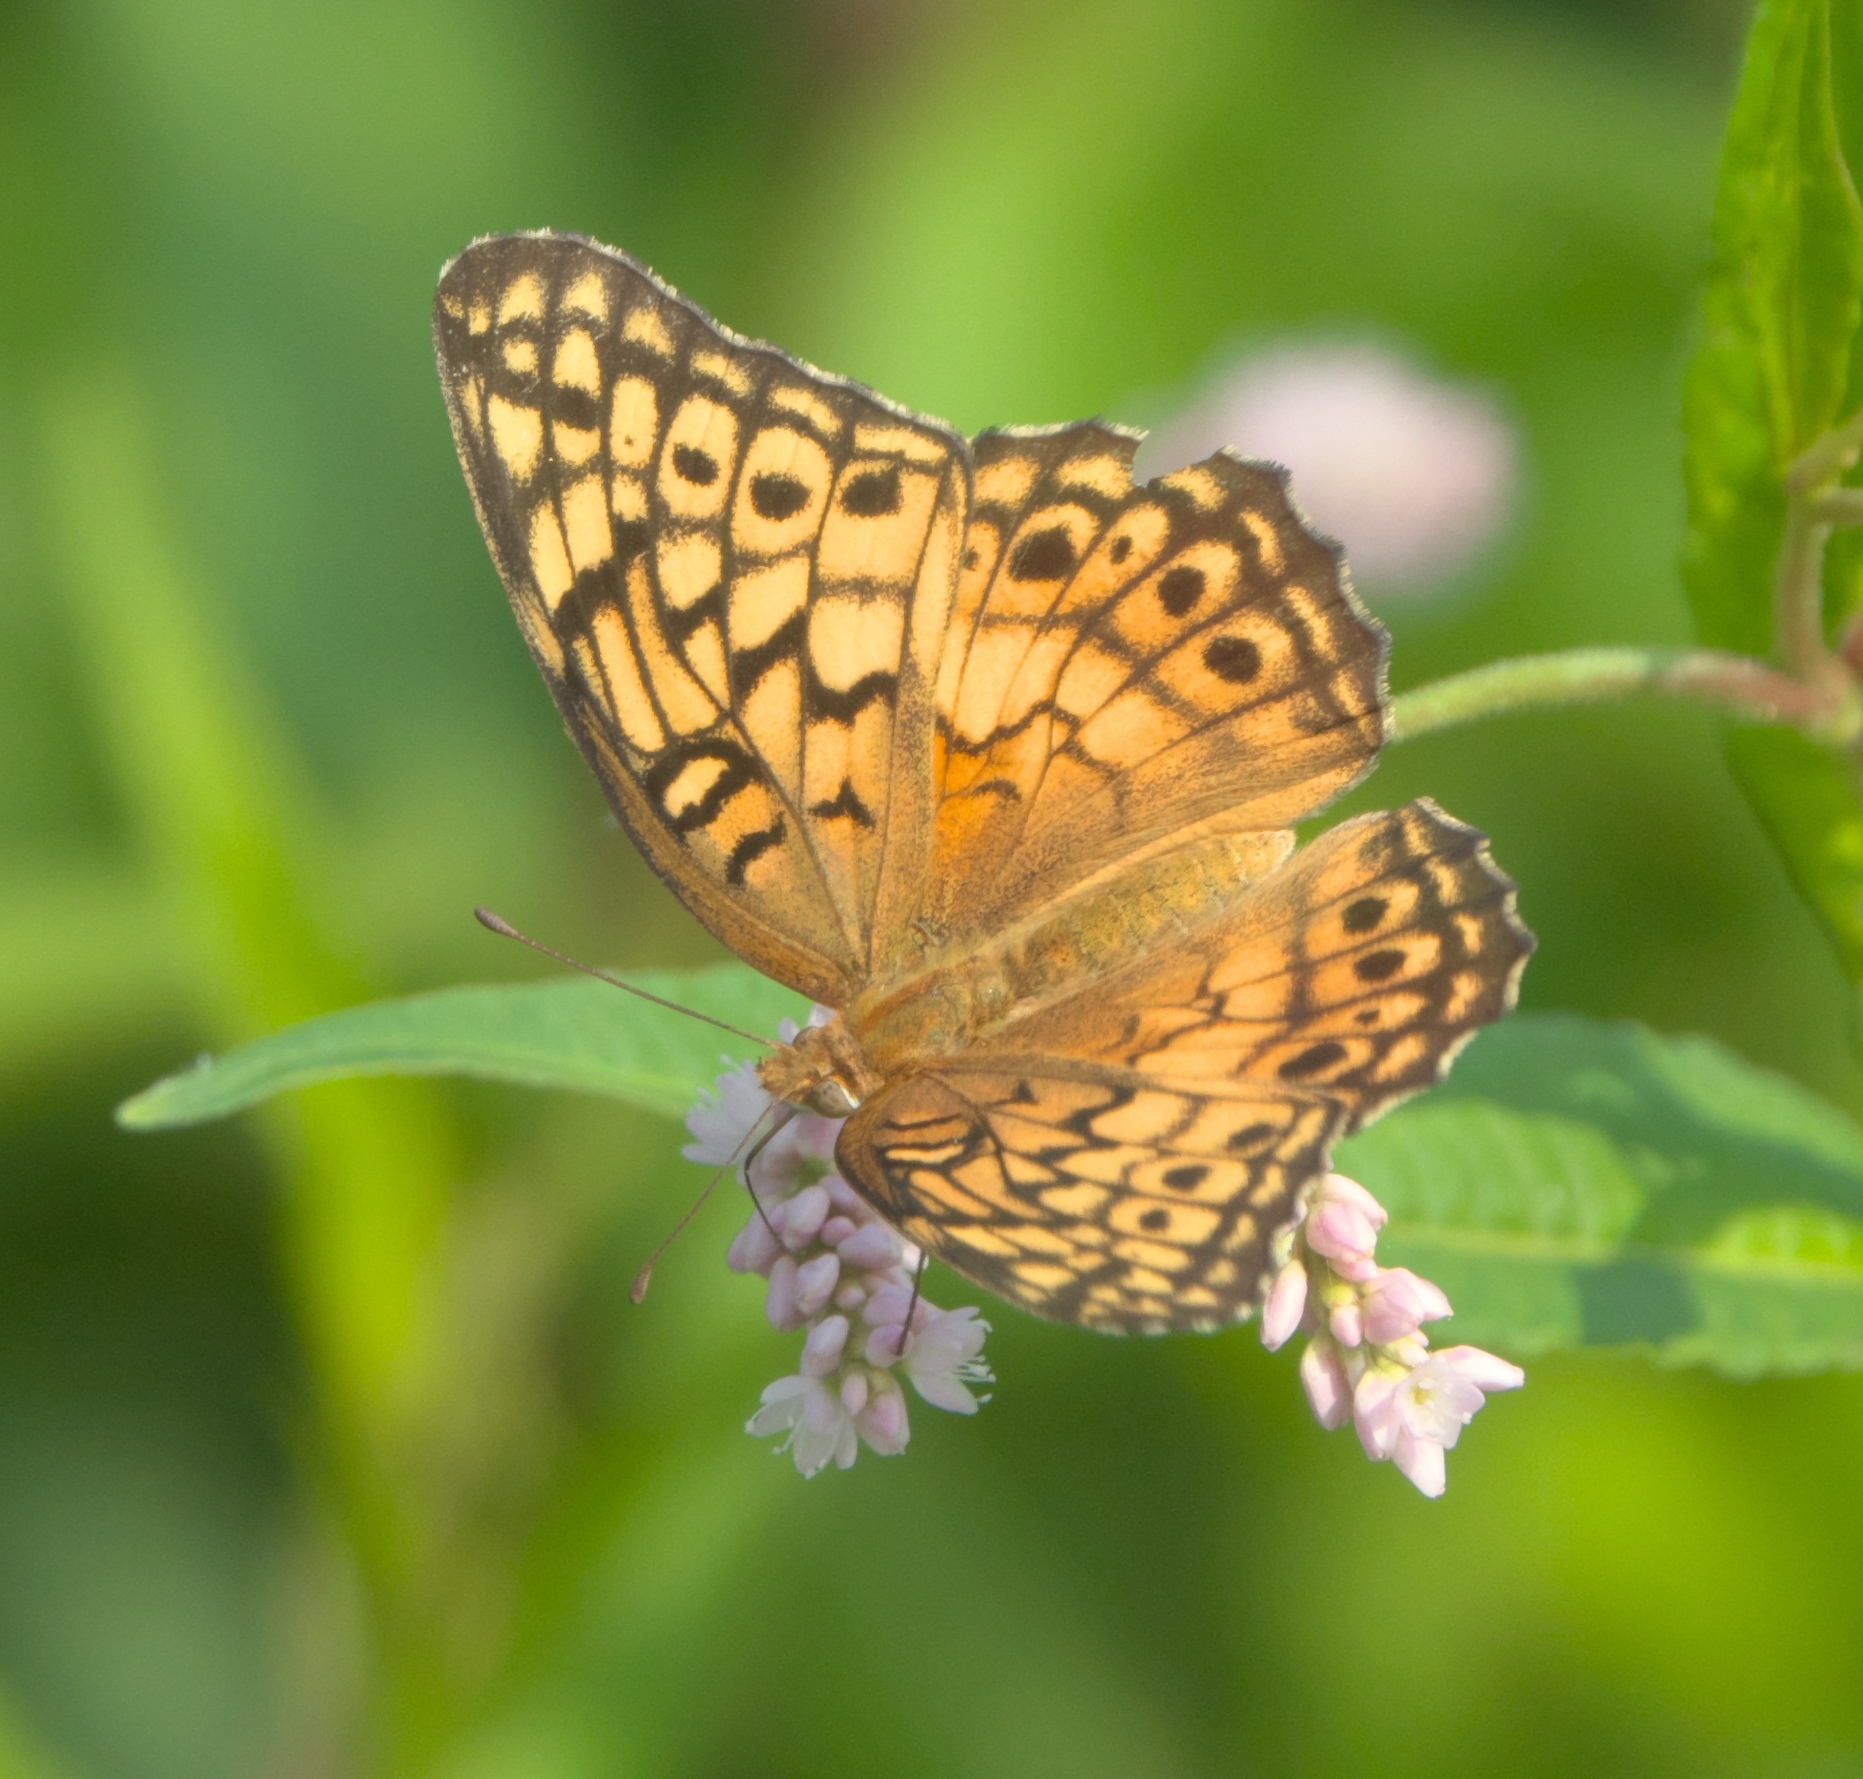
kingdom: Animalia
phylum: Arthropoda
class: Insecta
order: Lepidoptera
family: Nymphalidae
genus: Euptoieta
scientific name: Euptoieta claudia
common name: Variegated fritillary
